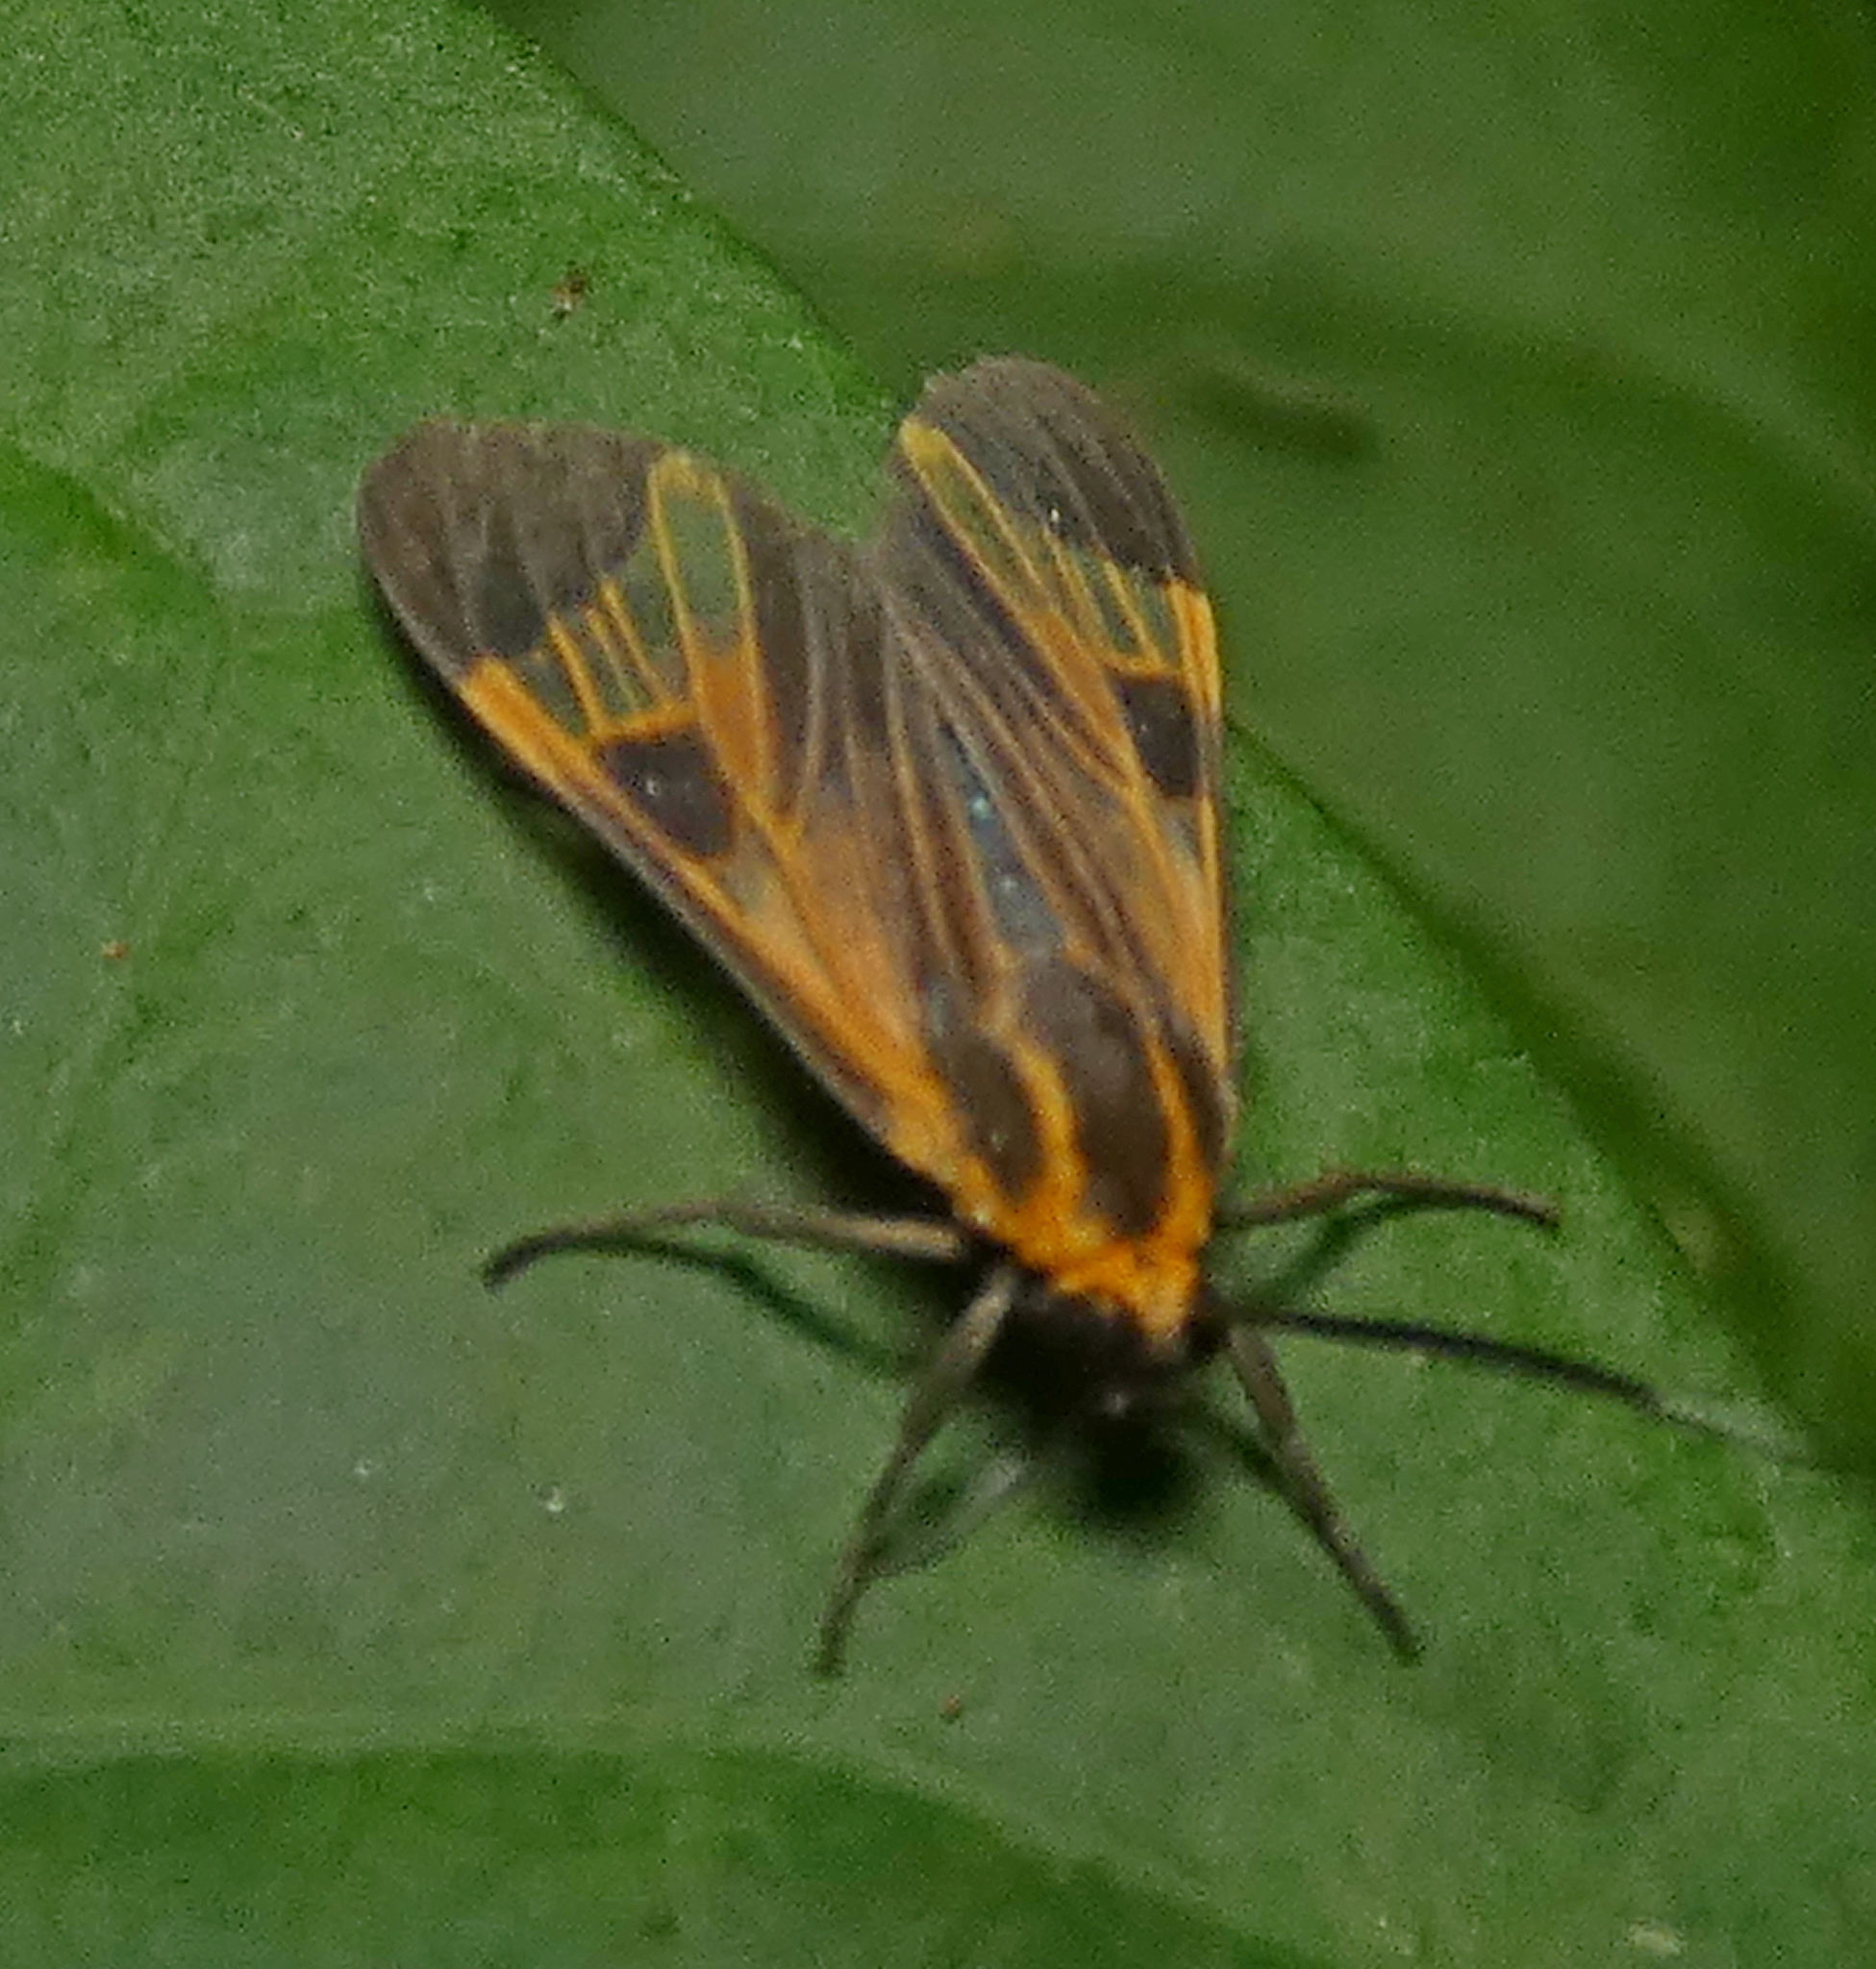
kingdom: Animalia
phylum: Arthropoda
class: Insecta
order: Lepidoptera
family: Erebidae
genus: Dycladia
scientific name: Dycladia lucetius
